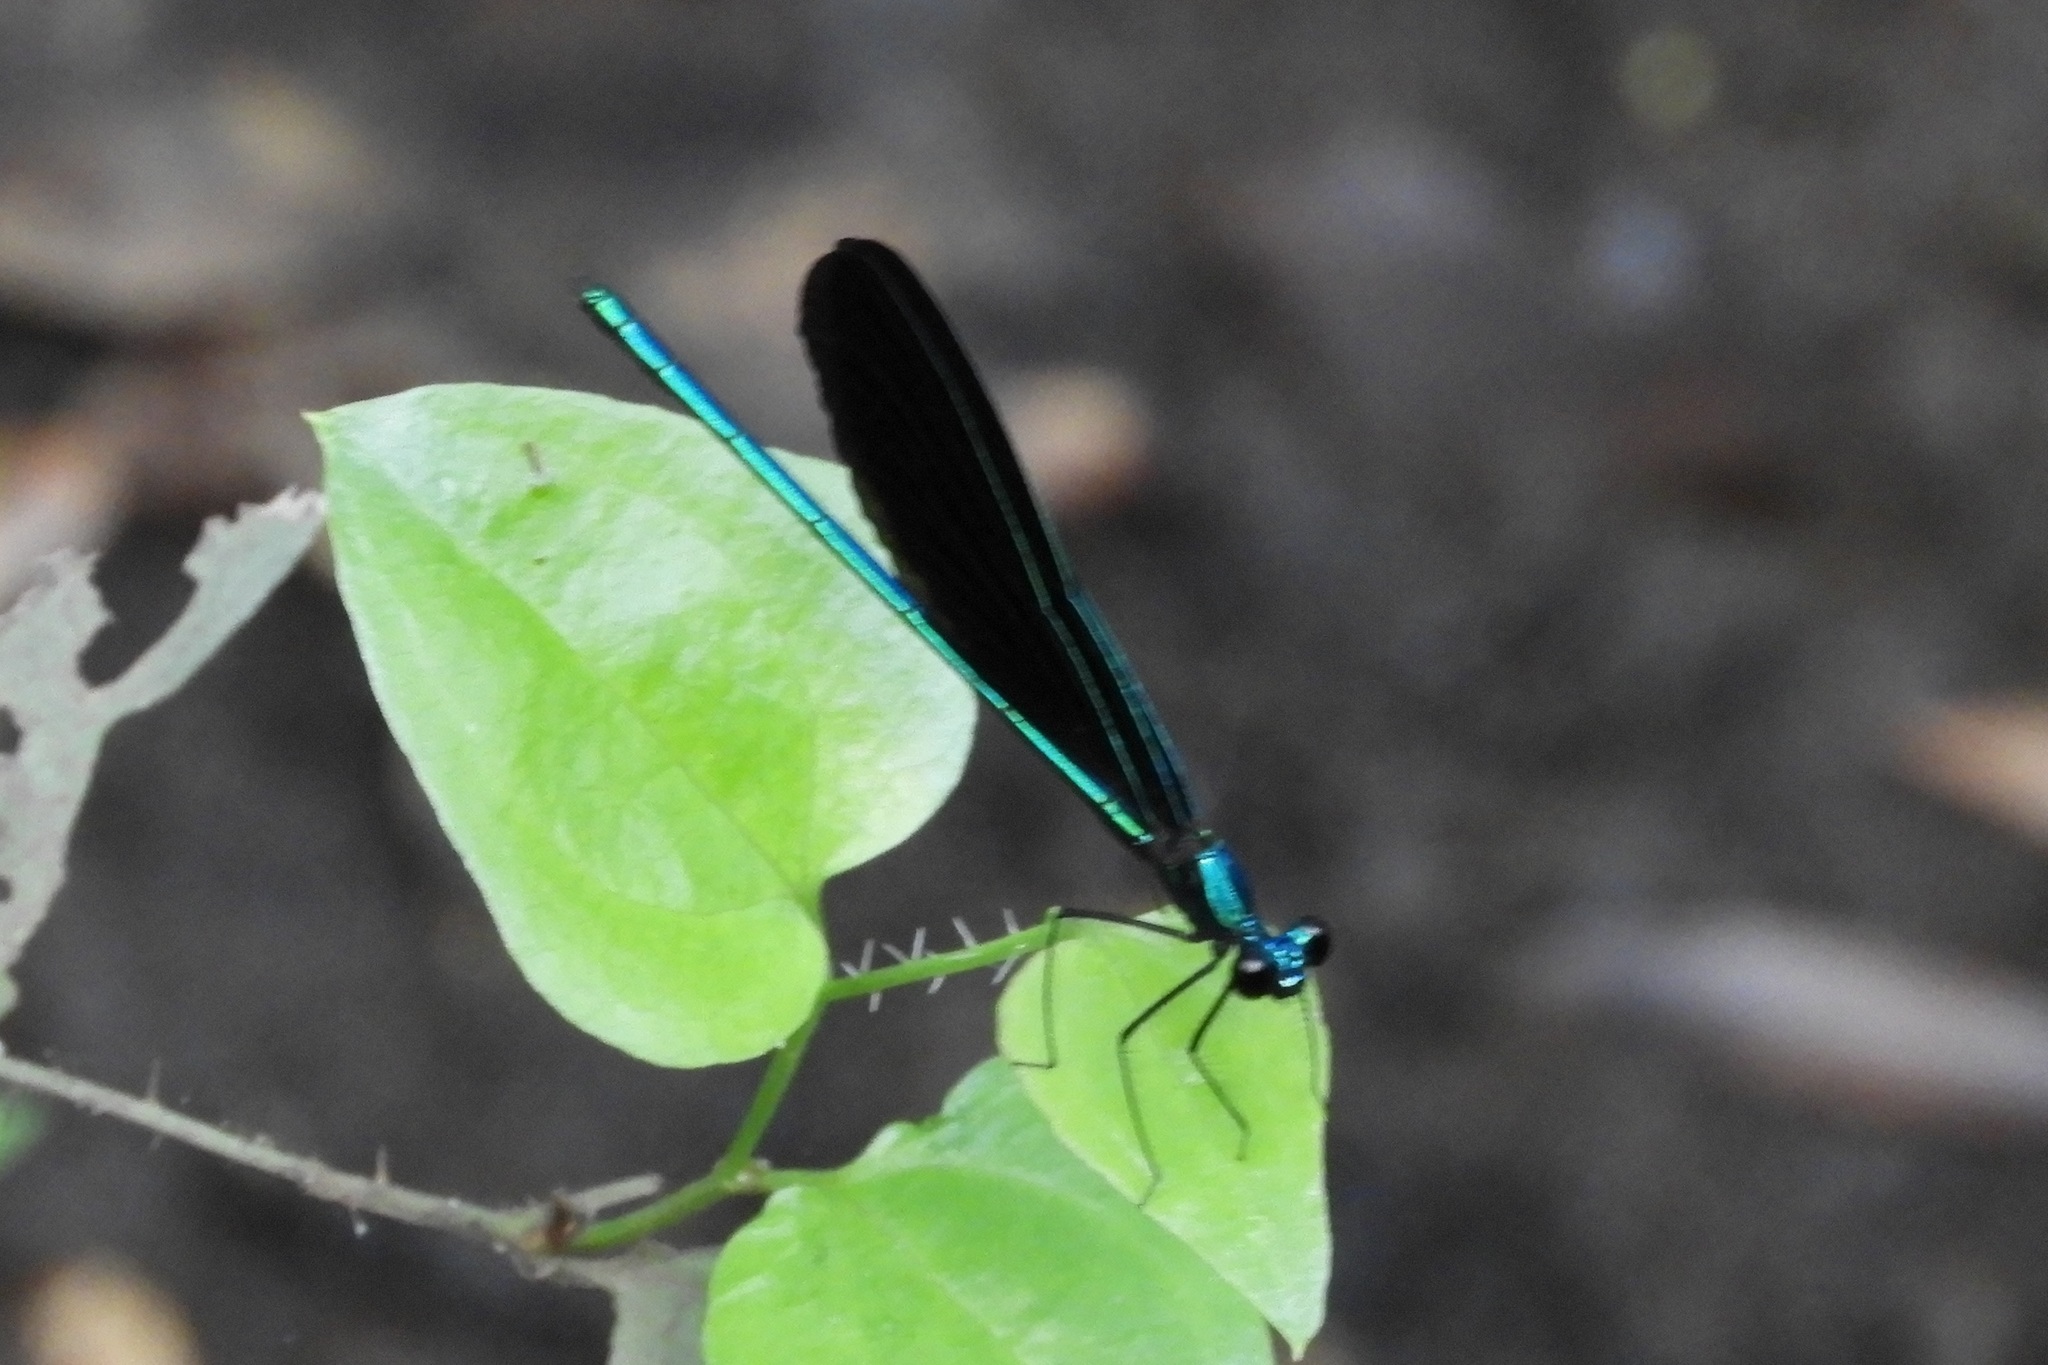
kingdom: Animalia
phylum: Arthropoda
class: Insecta
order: Odonata
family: Calopterygidae
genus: Calopteryx
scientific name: Calopteryx maculata
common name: Ebony jewelwing
